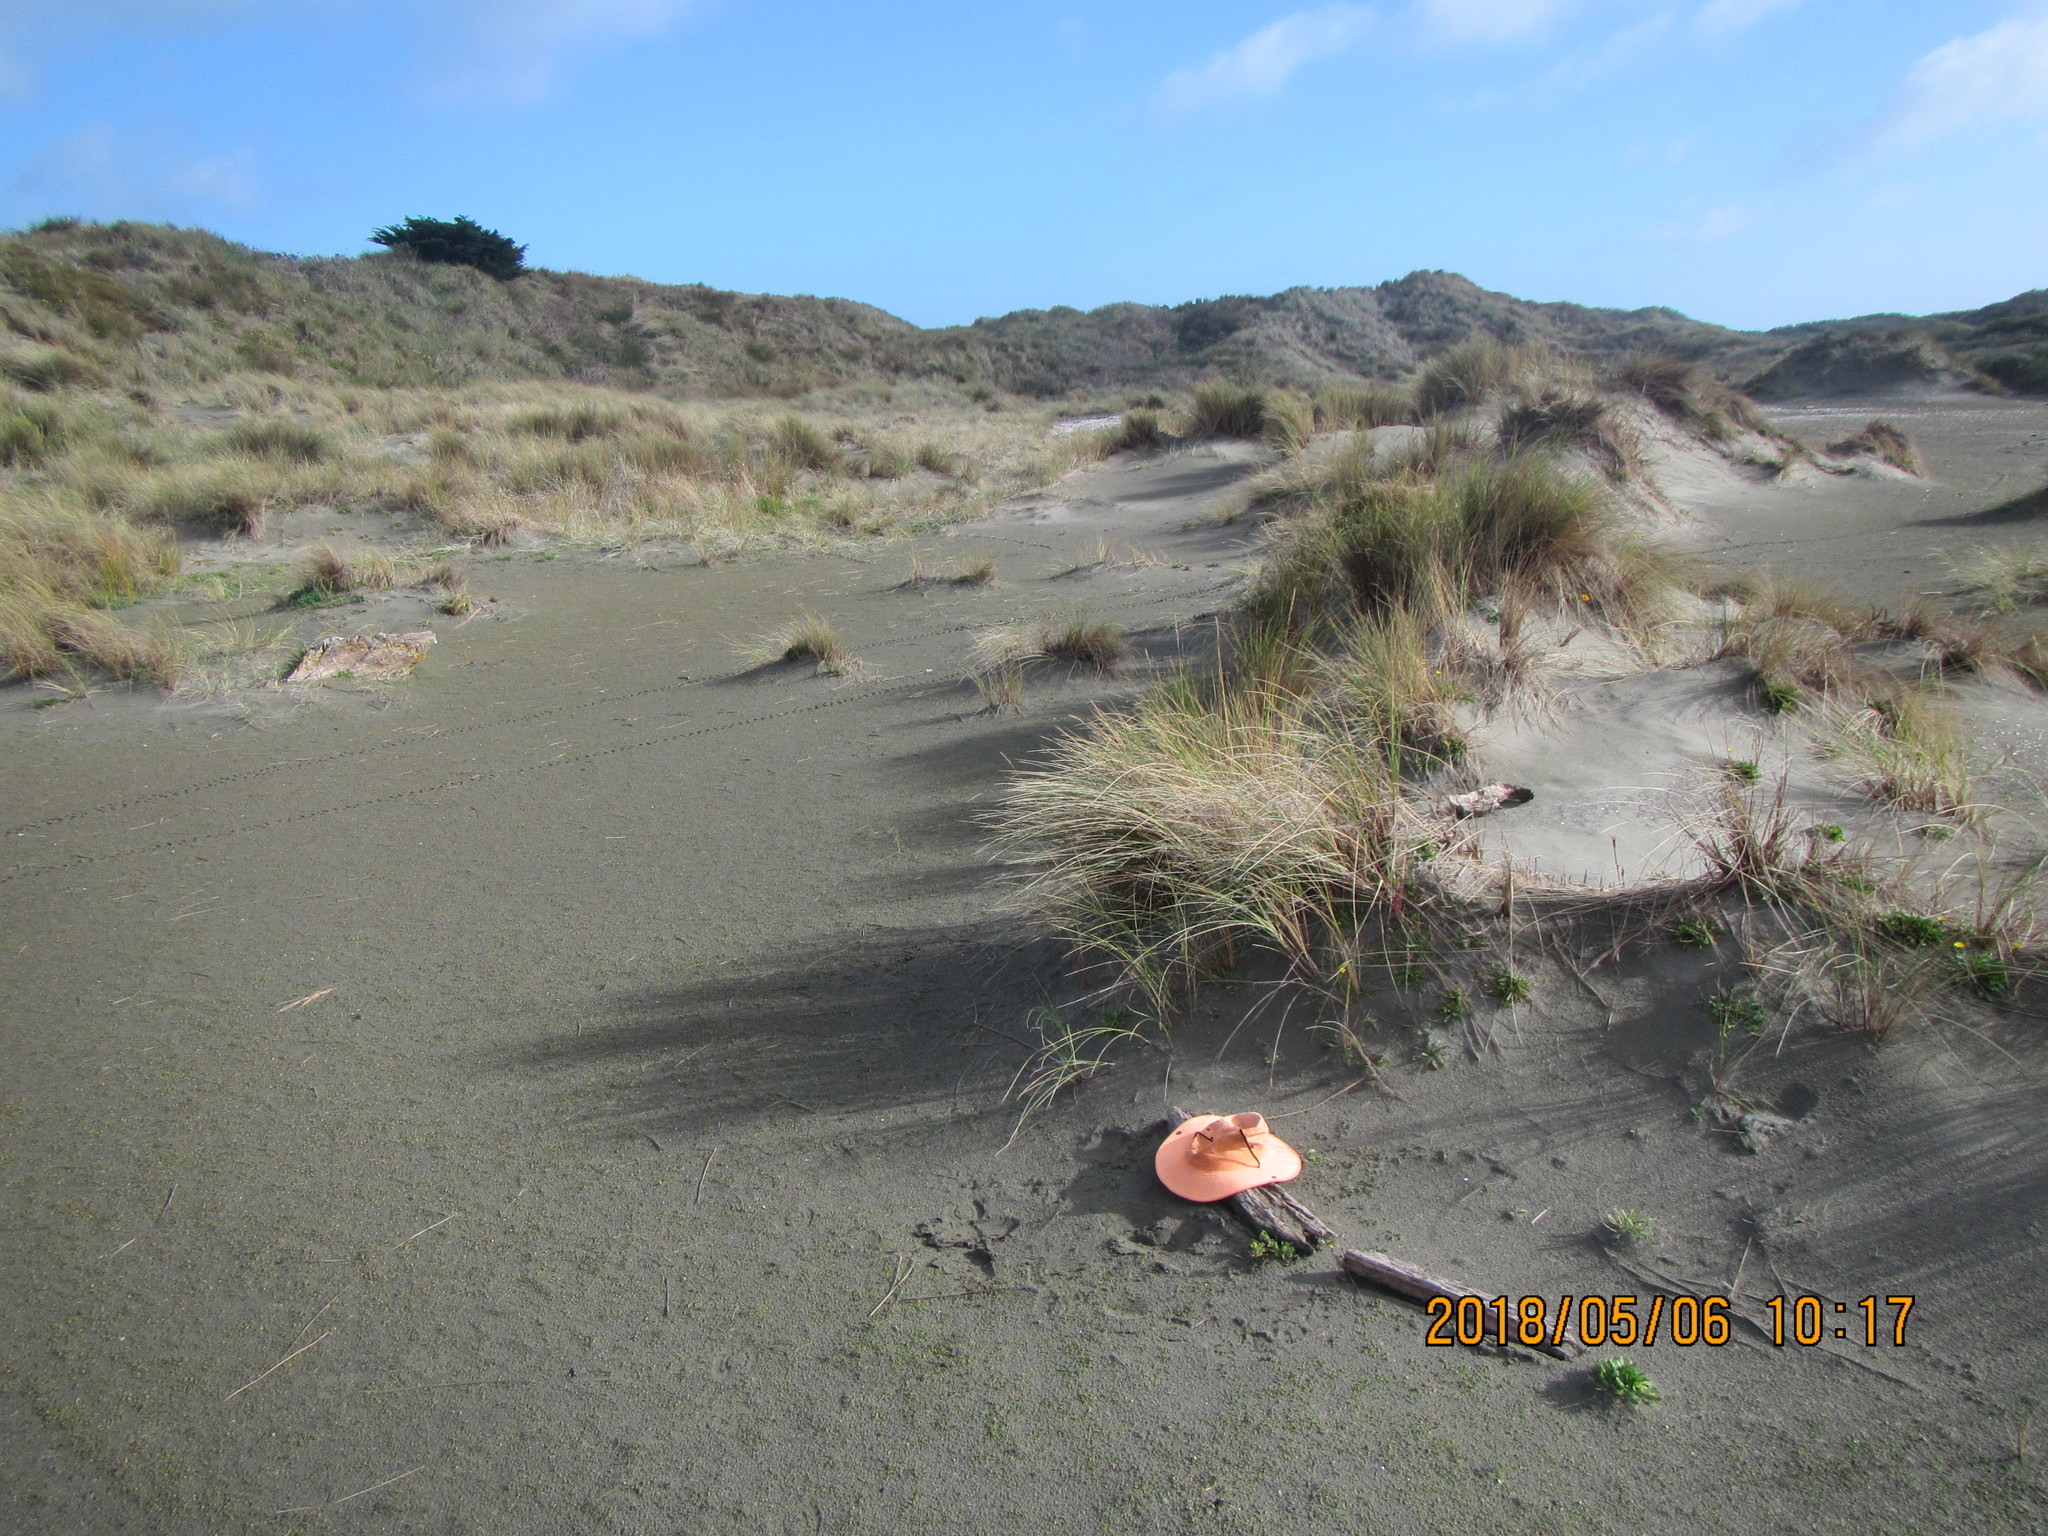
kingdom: Animalia
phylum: Arthropoda
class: Arachnida
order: Araneae
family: Theridiidae
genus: Steatoda
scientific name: Steatoda capensis
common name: Cobweb weaver
